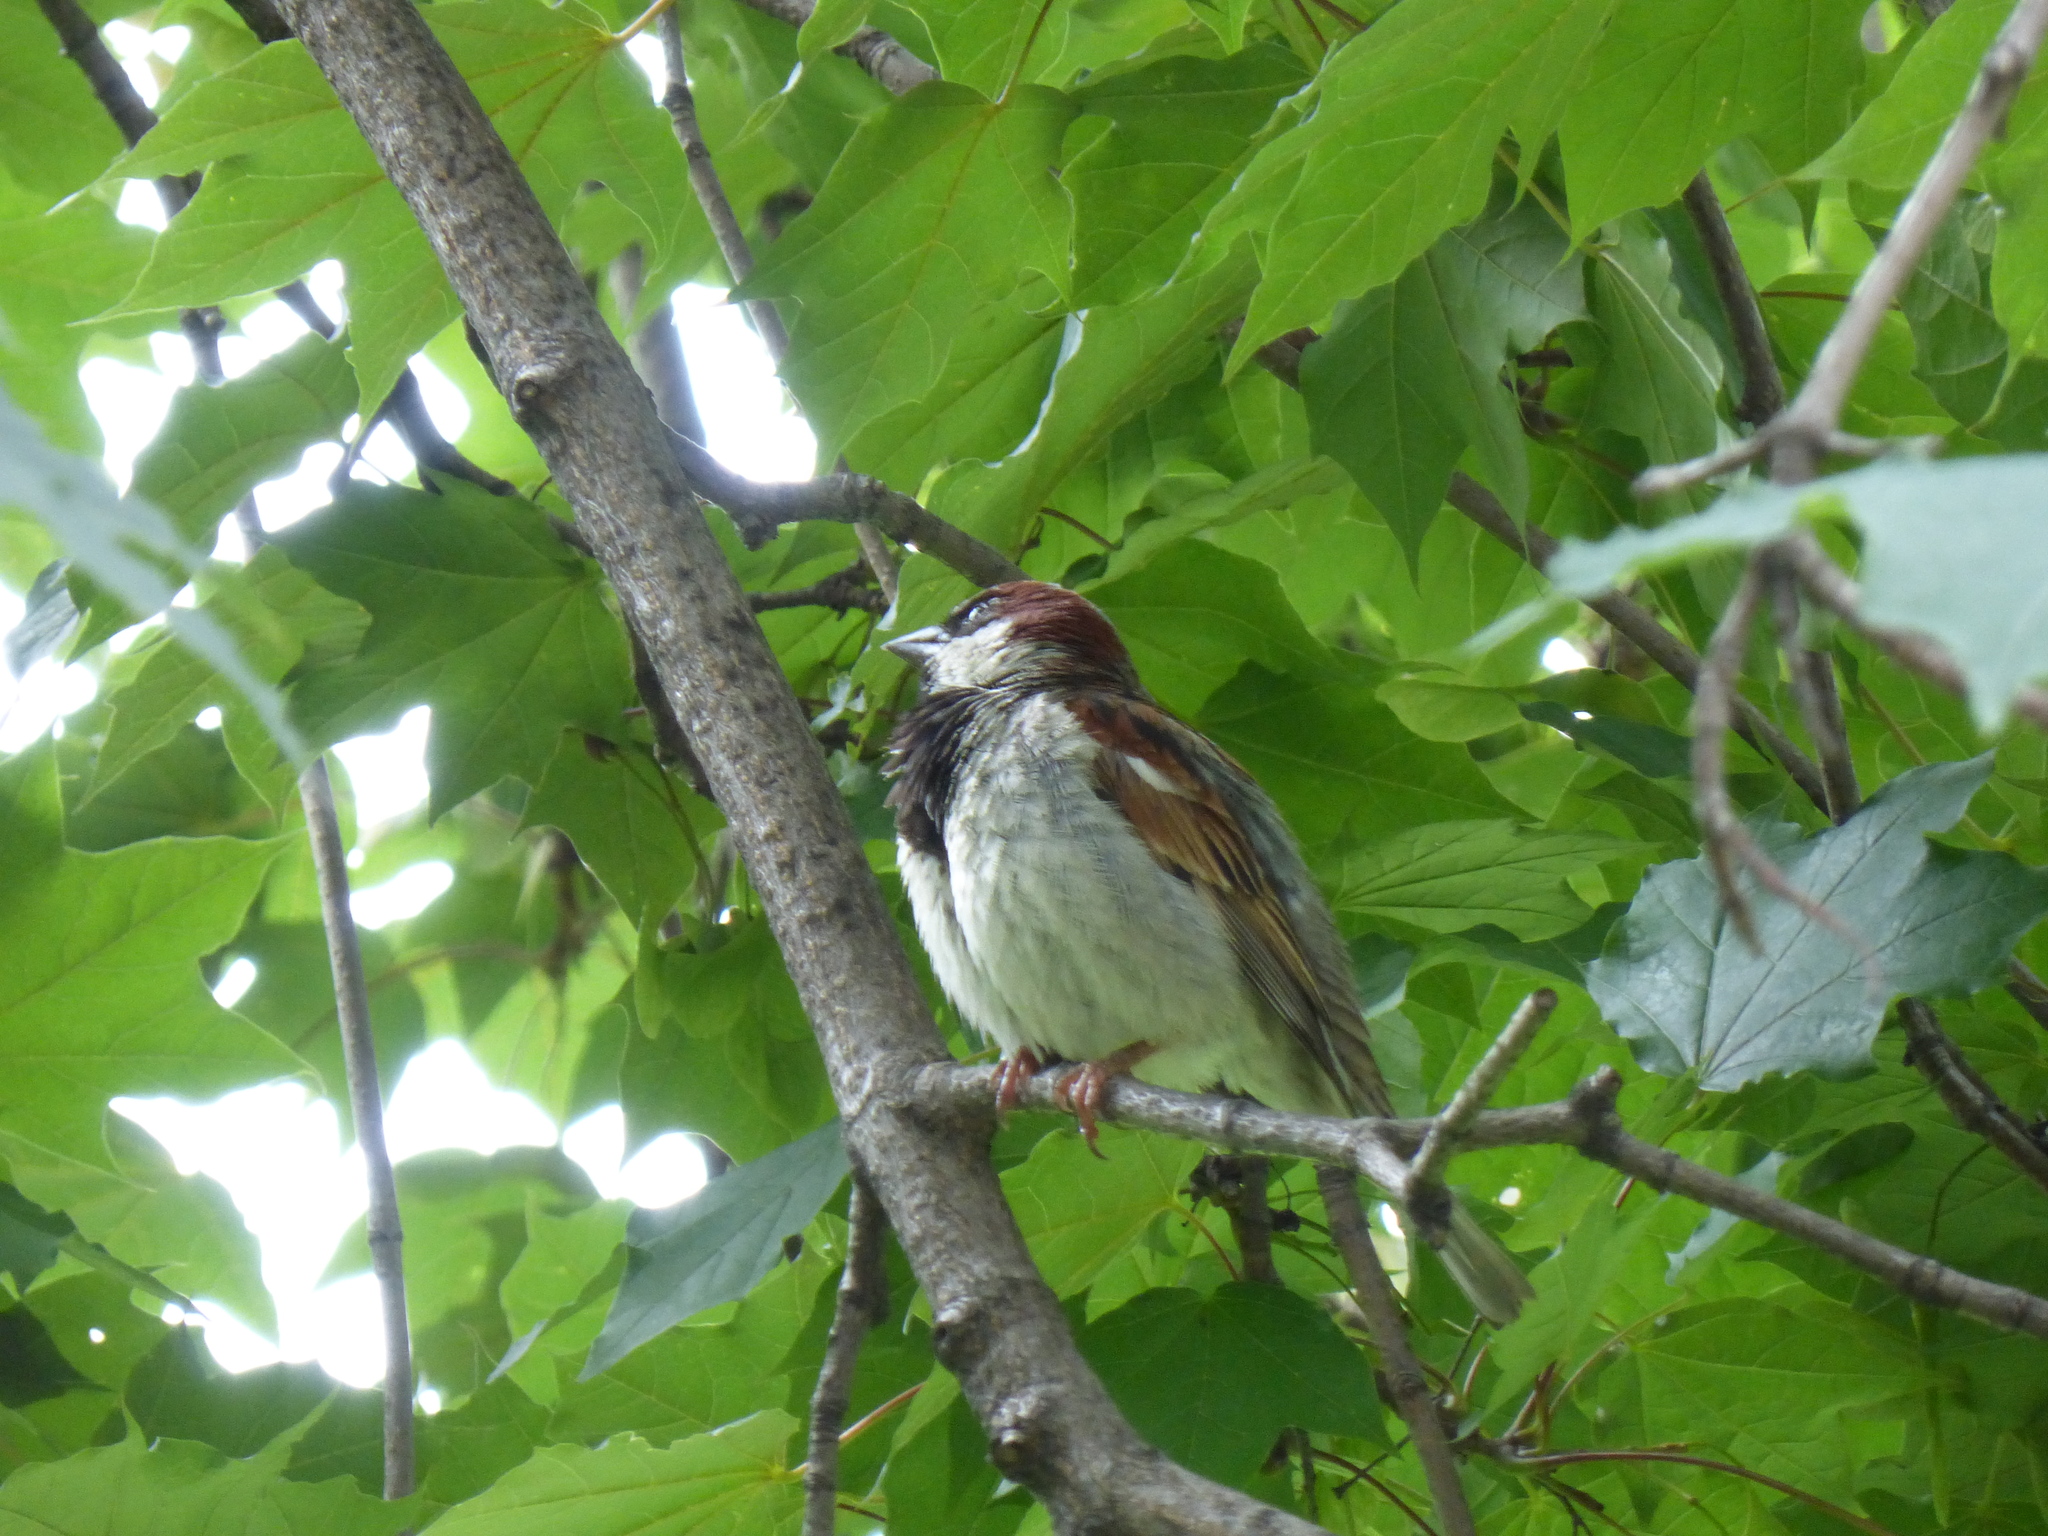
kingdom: Animalia
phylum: Chordata
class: Aves
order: Passeriformes
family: Passeridae
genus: Passer
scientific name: Passer domesticus
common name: House sparrow
